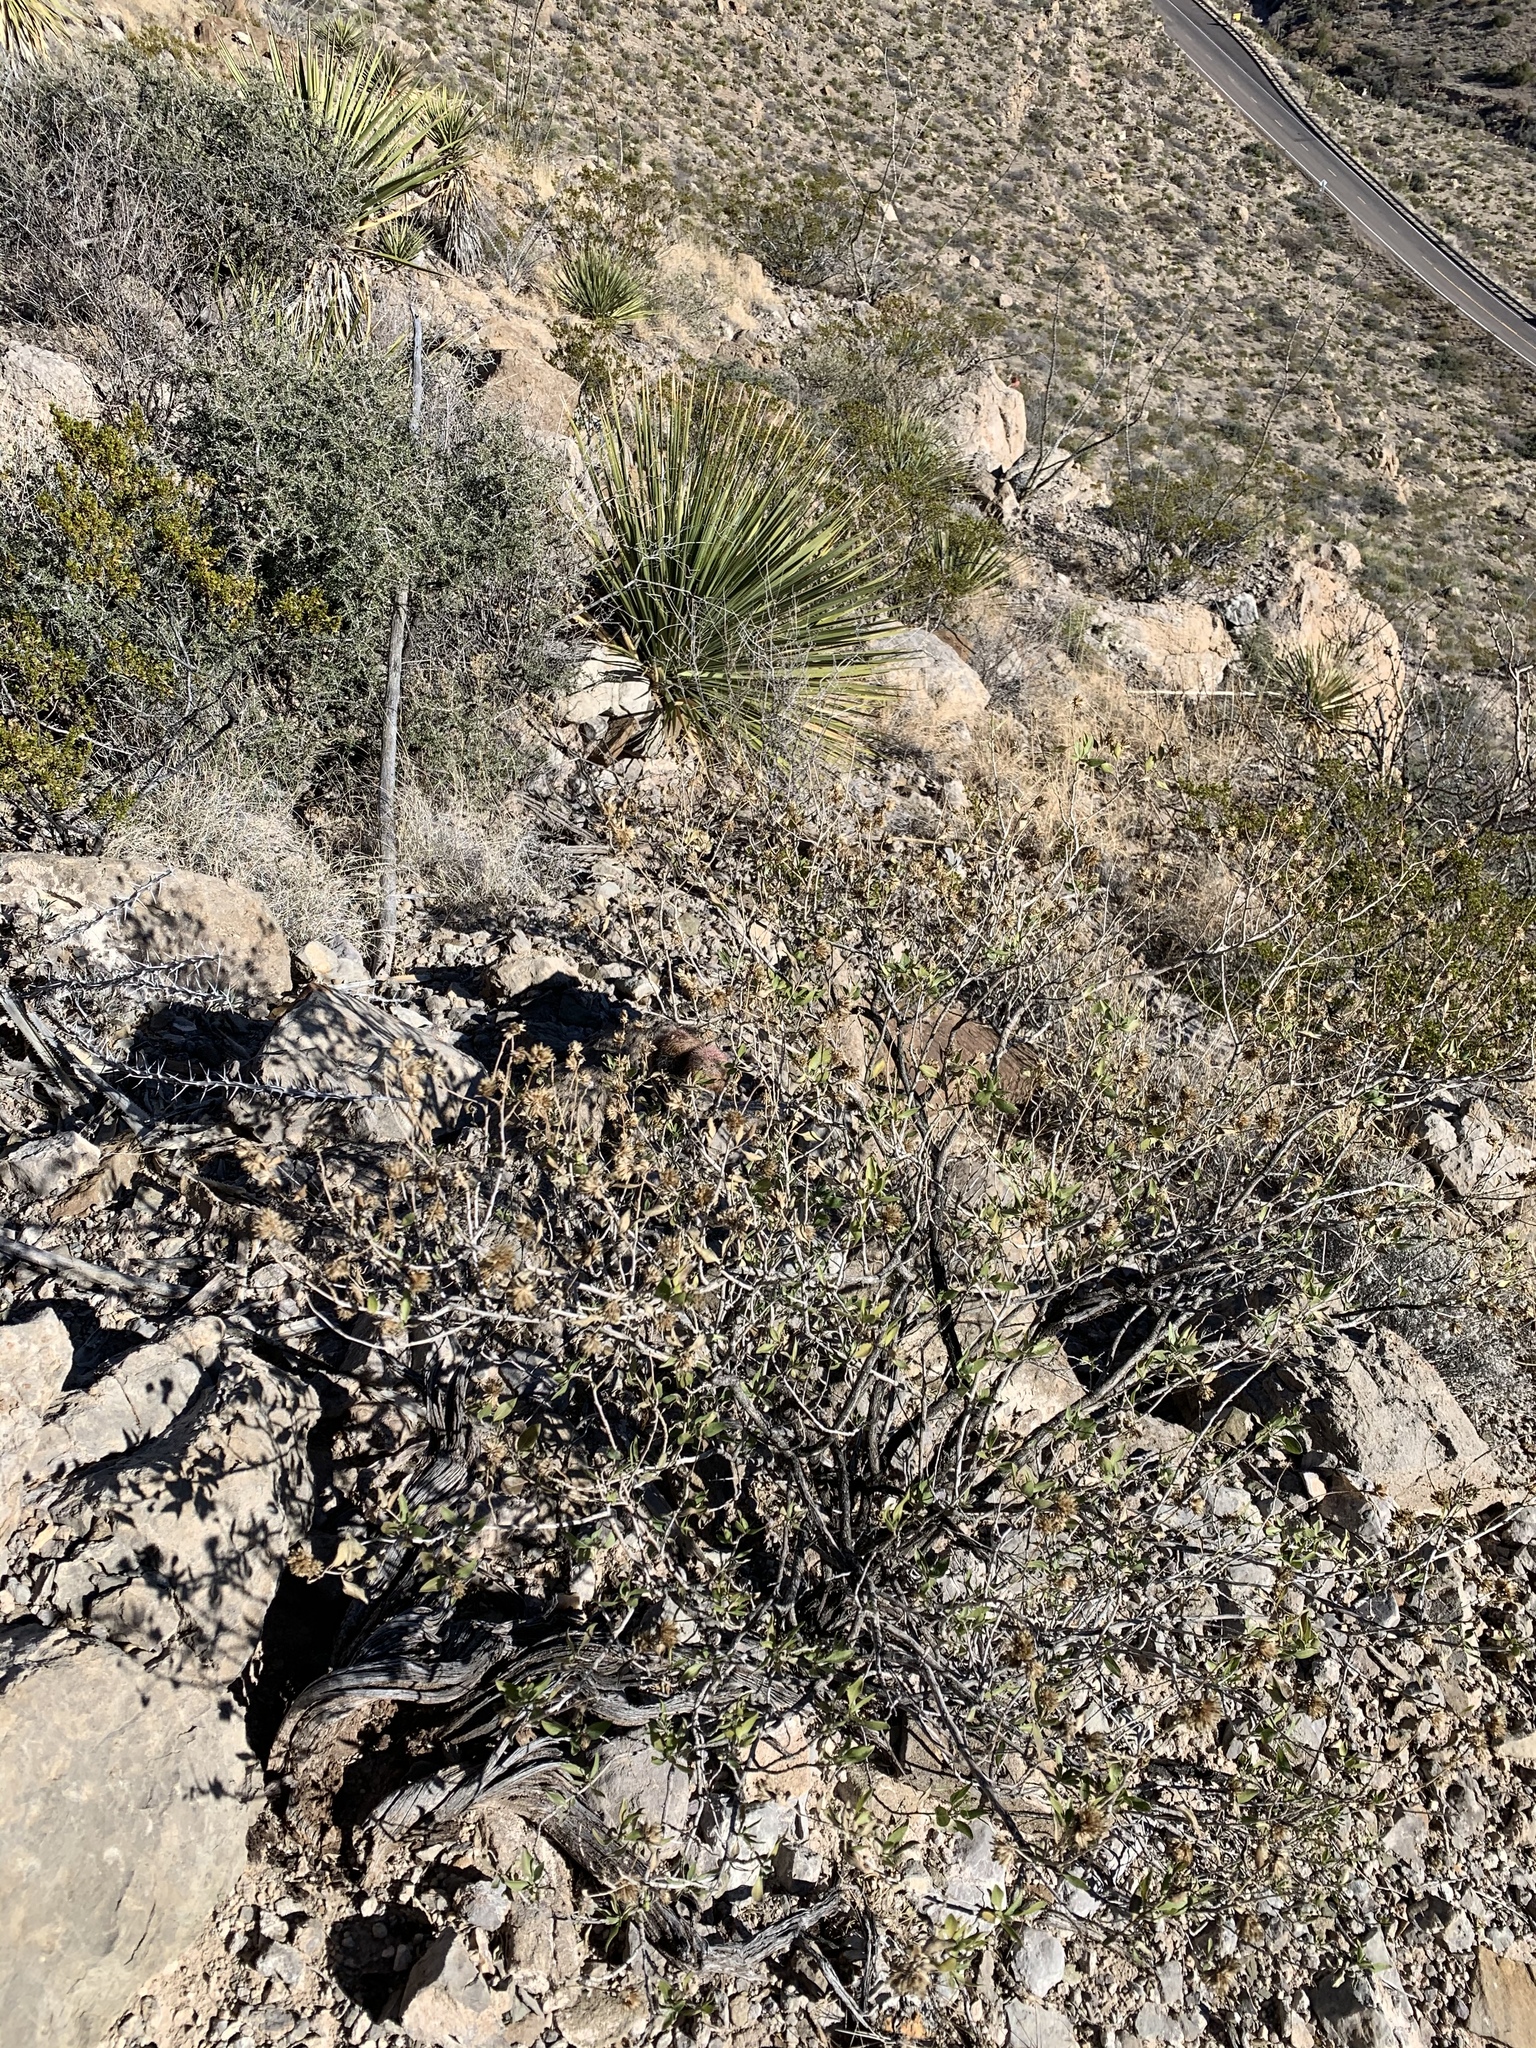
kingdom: Plantae
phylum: Tracheophyta
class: Magnoliopsida
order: Asterales
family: Asteraceae
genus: Flourensia
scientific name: Flourensia cernua
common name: Varnishbush
